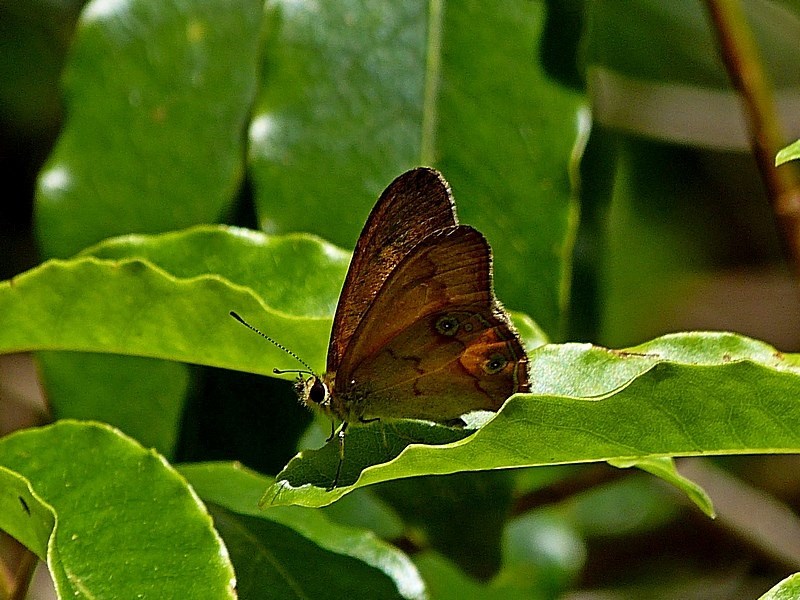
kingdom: Animalia
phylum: Arthropoda
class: Insecta
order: Lepidoptera
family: Nymphalidae
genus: Hypocysta
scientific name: Hypocysta metirius
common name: Brown ringlet
